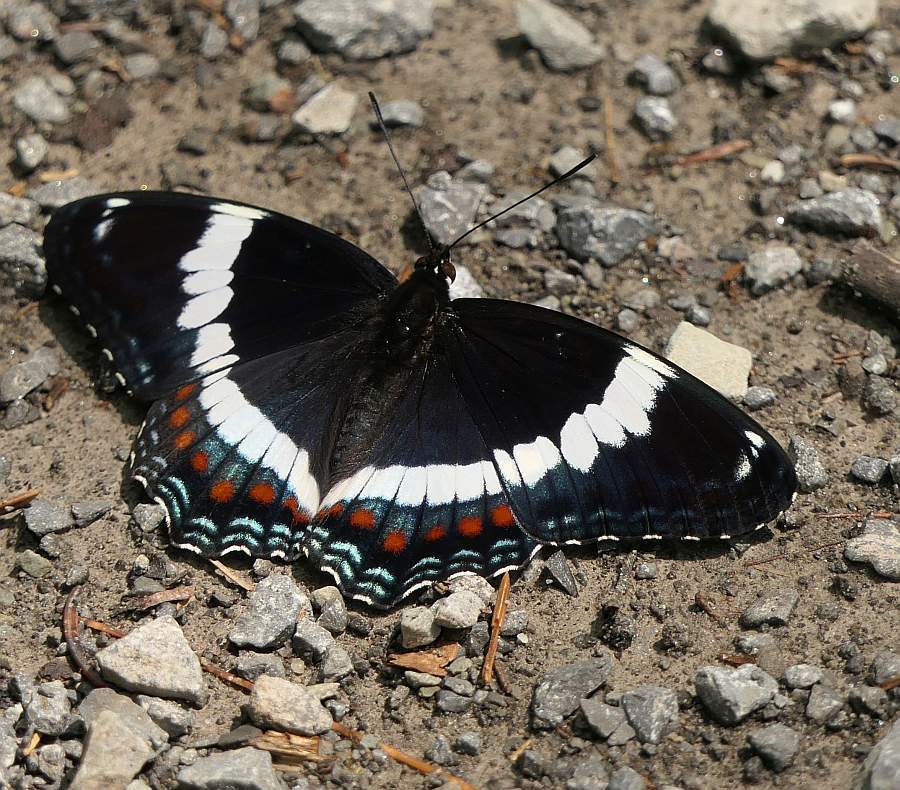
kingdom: Animalia
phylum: Arthropoda
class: Insecta
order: Lepidoptera
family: Nymphalidae
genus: Limenitis
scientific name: Limenitis arthemis
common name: Red-spotted admiral
